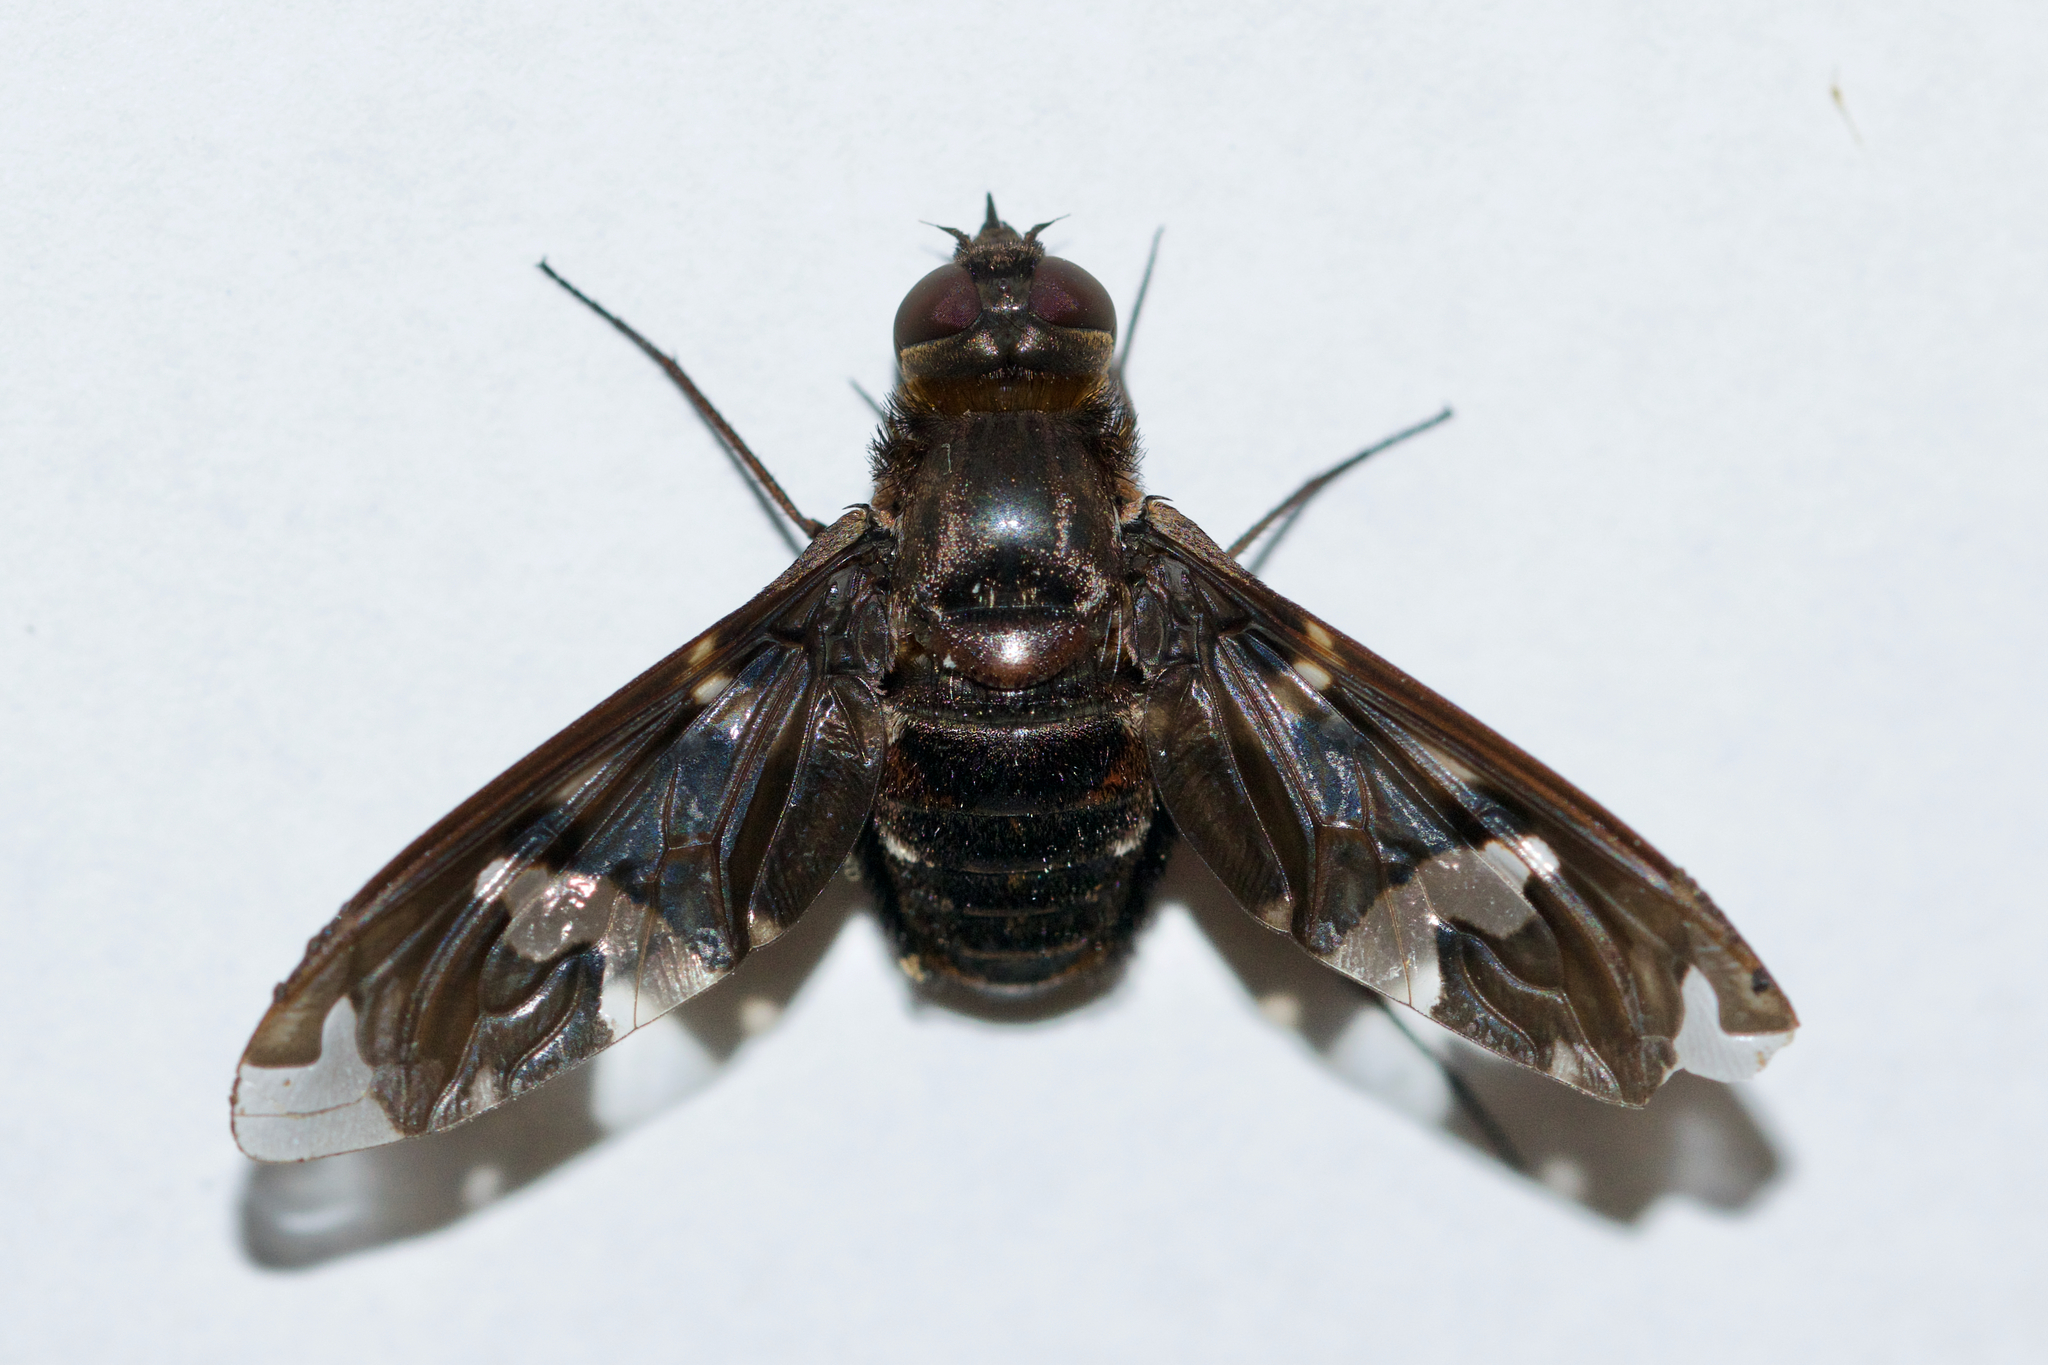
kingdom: Animalia
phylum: Arthropoda
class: Insecta
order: Diptera
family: Bombyliidae
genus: Exoprosopa
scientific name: Exoprosopa decora
